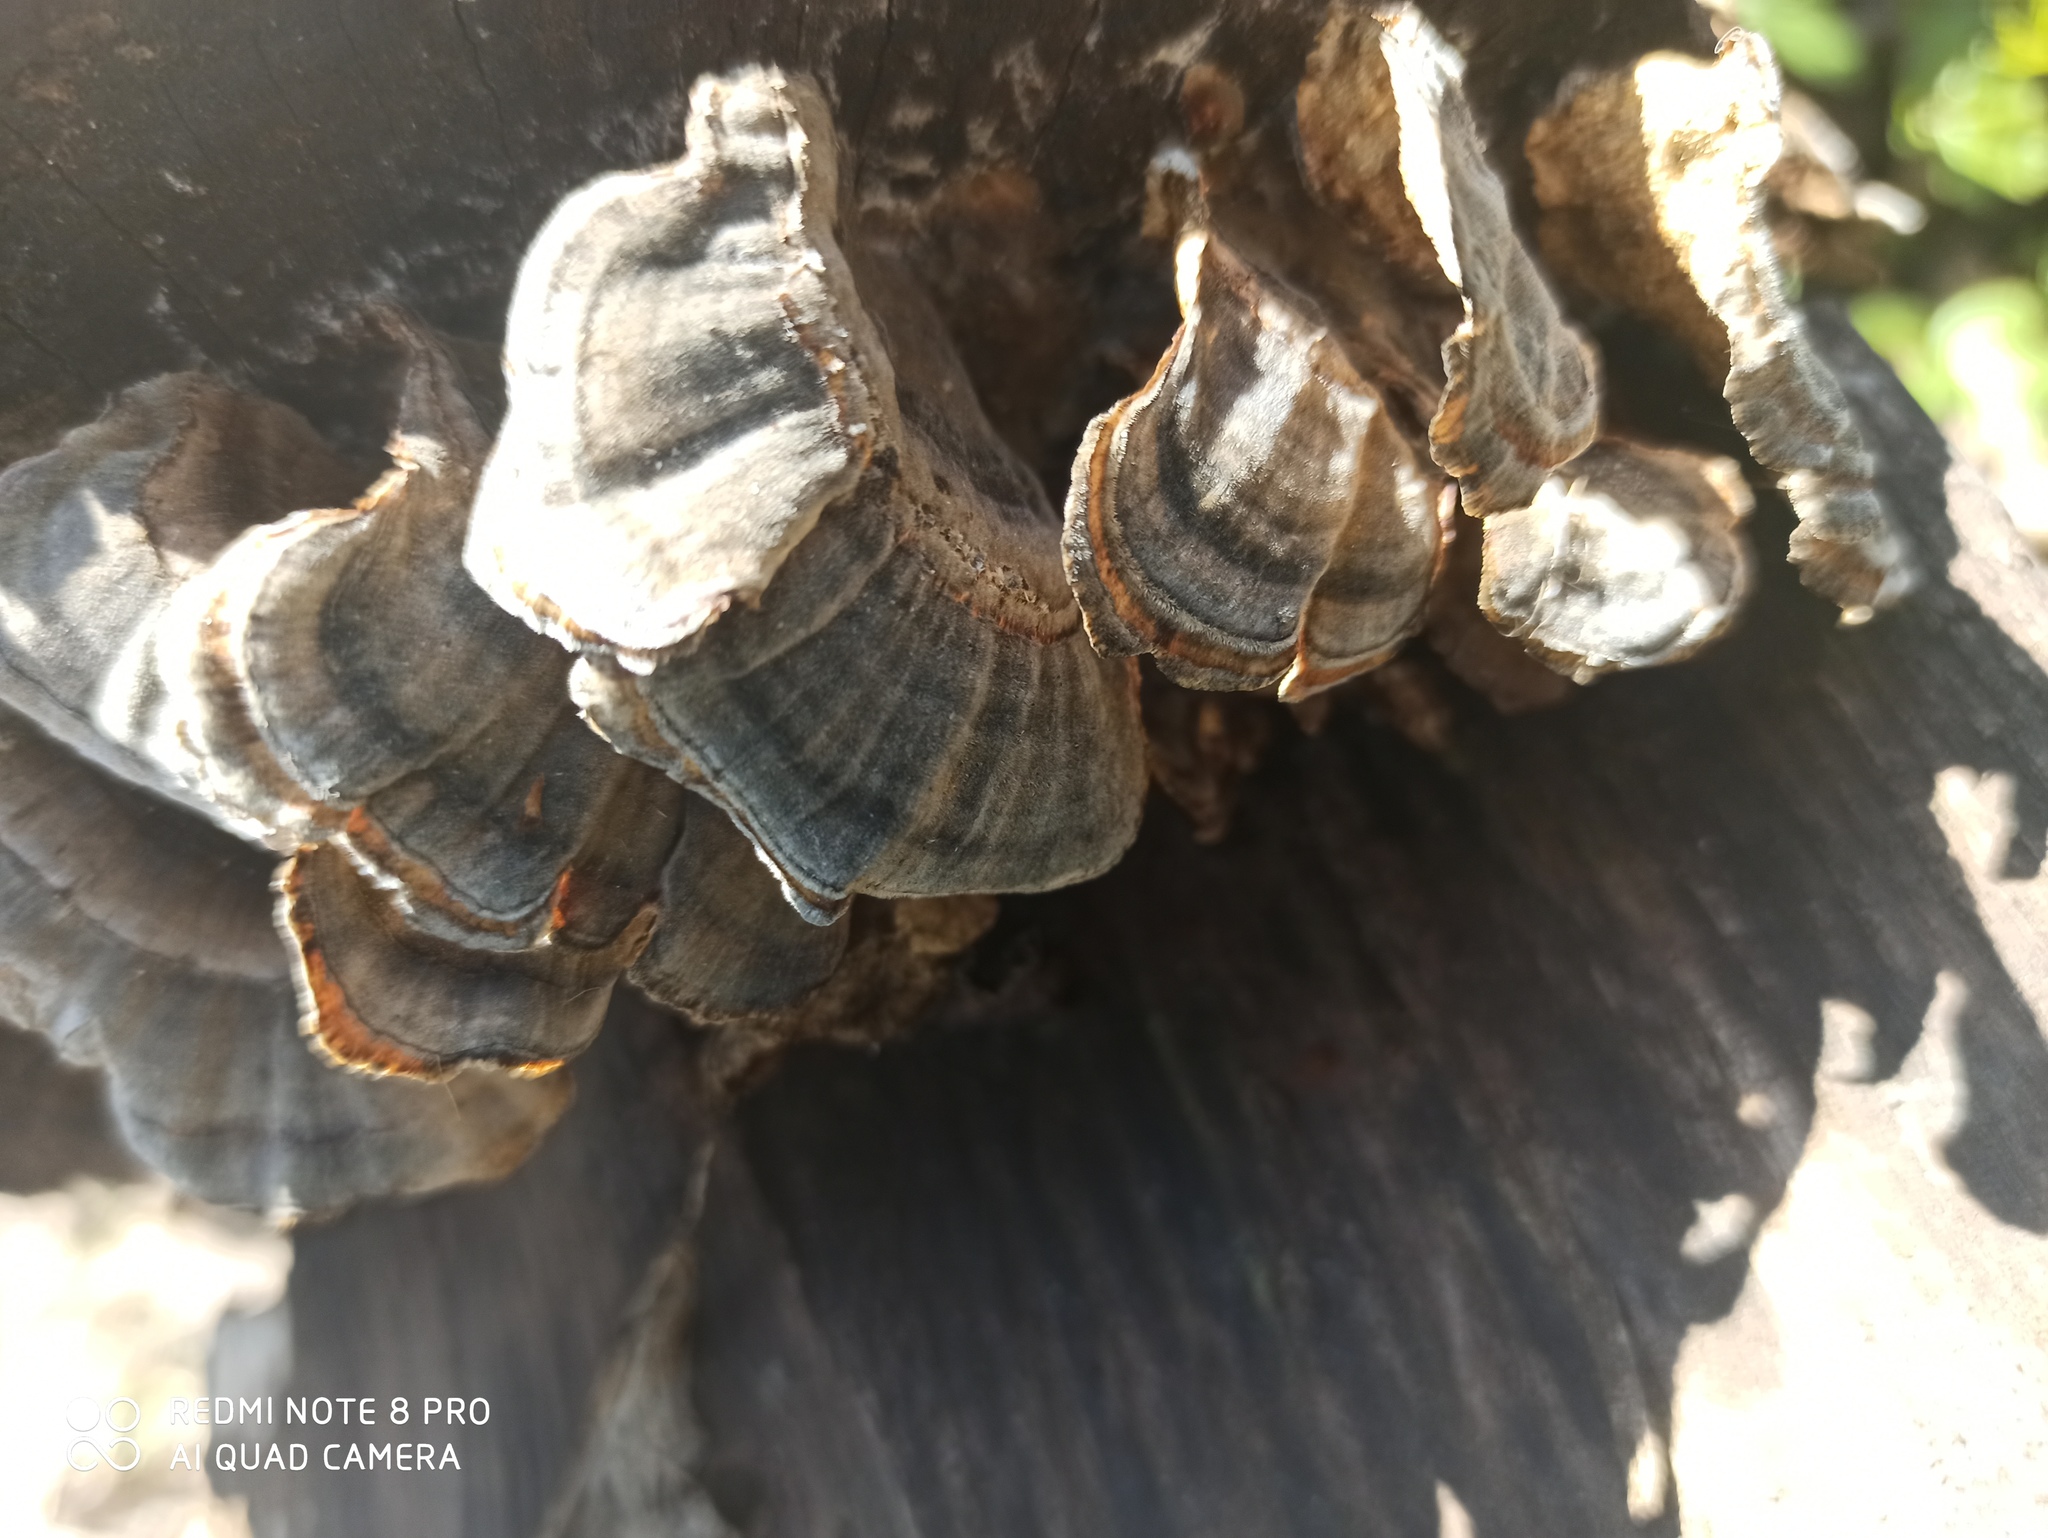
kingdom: Fungi
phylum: Basidiomycota
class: Agaricomycetes
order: Polyporales
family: Polyporaceae
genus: Trametes
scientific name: Trametes versicolor
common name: Turkeytail
